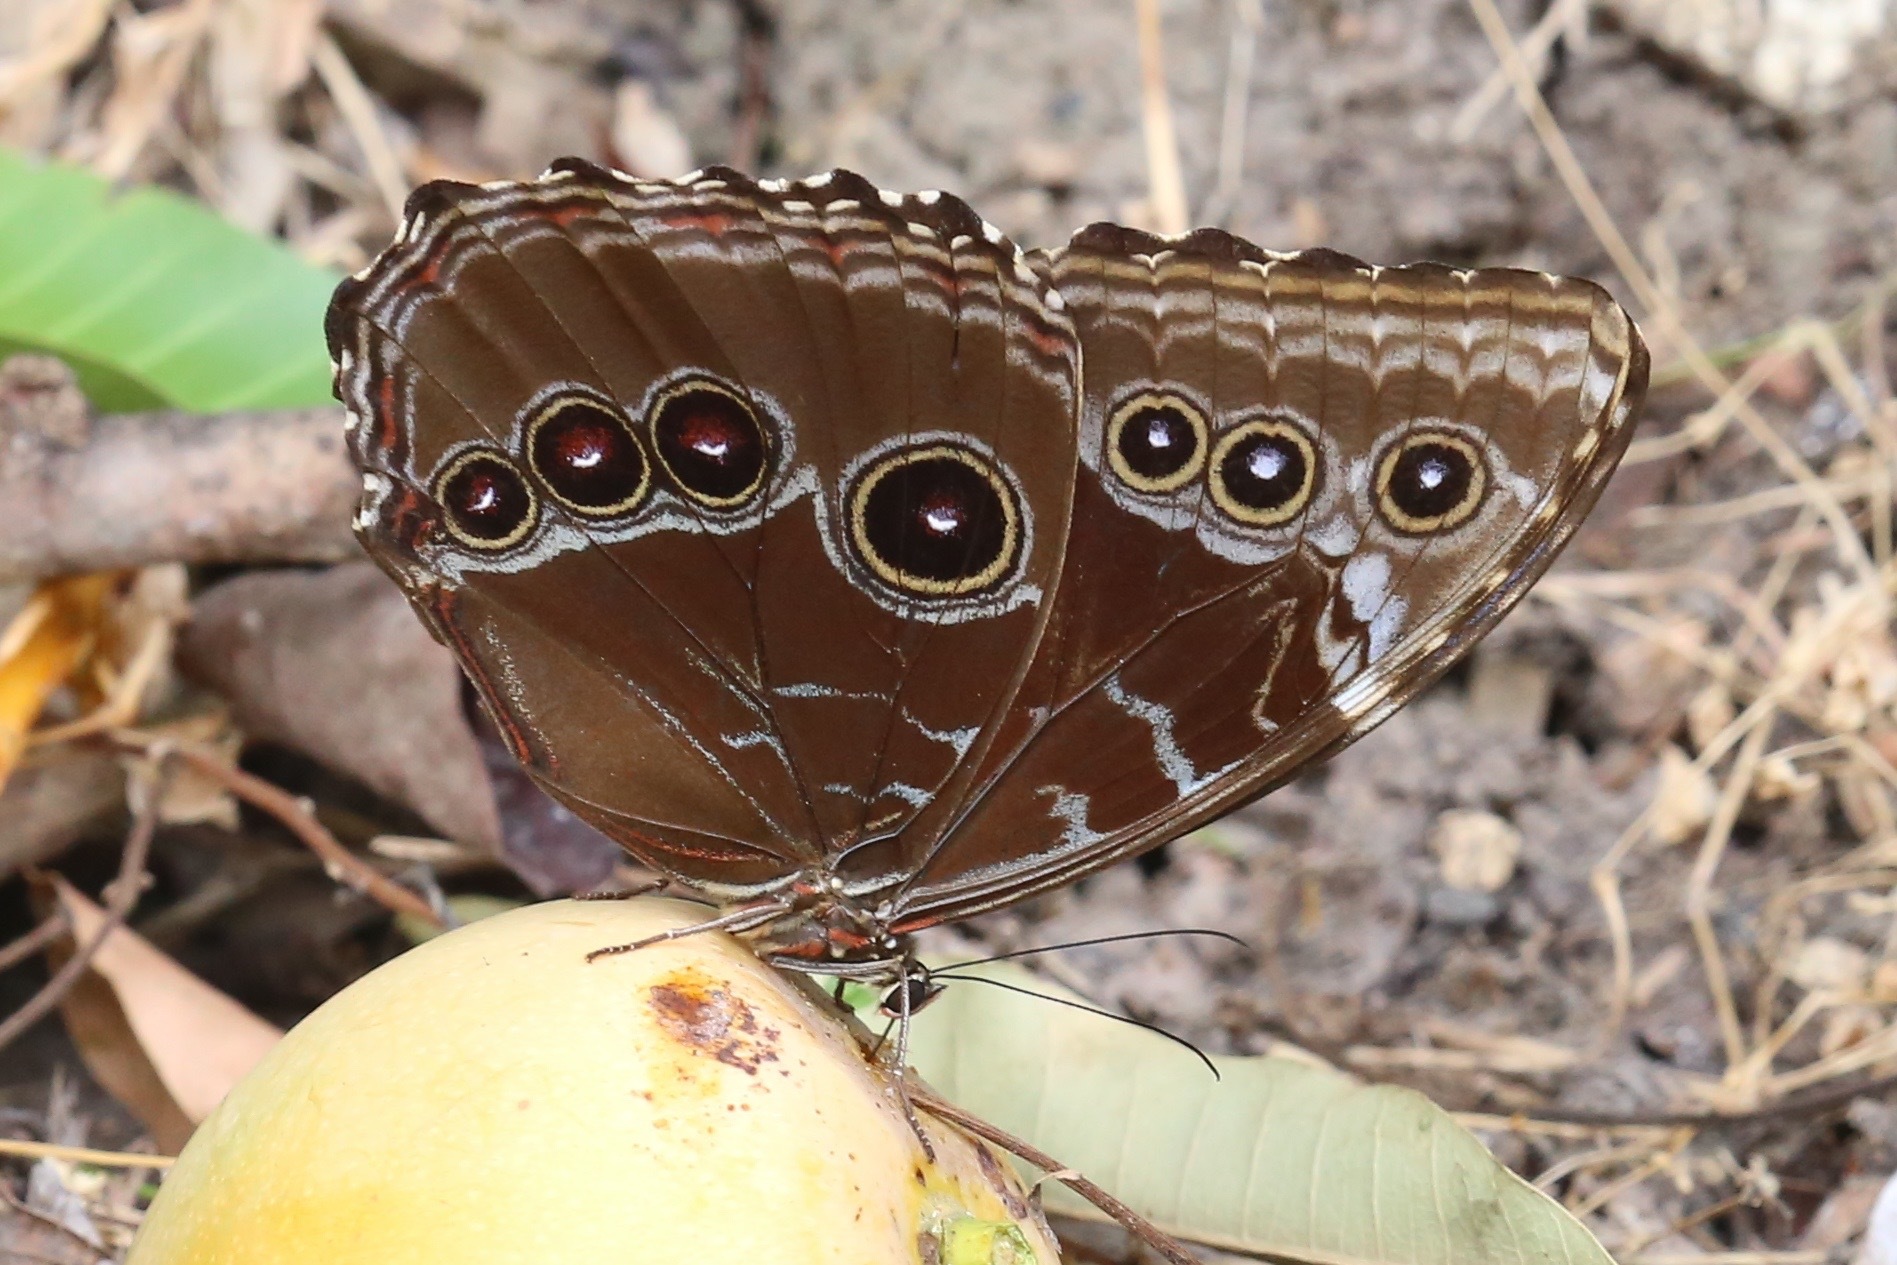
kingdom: Animalia
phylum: Arthropoda
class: Insecta
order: Lepidoptera
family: Nymphalidae
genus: Morpho
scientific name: Morpho helenor
